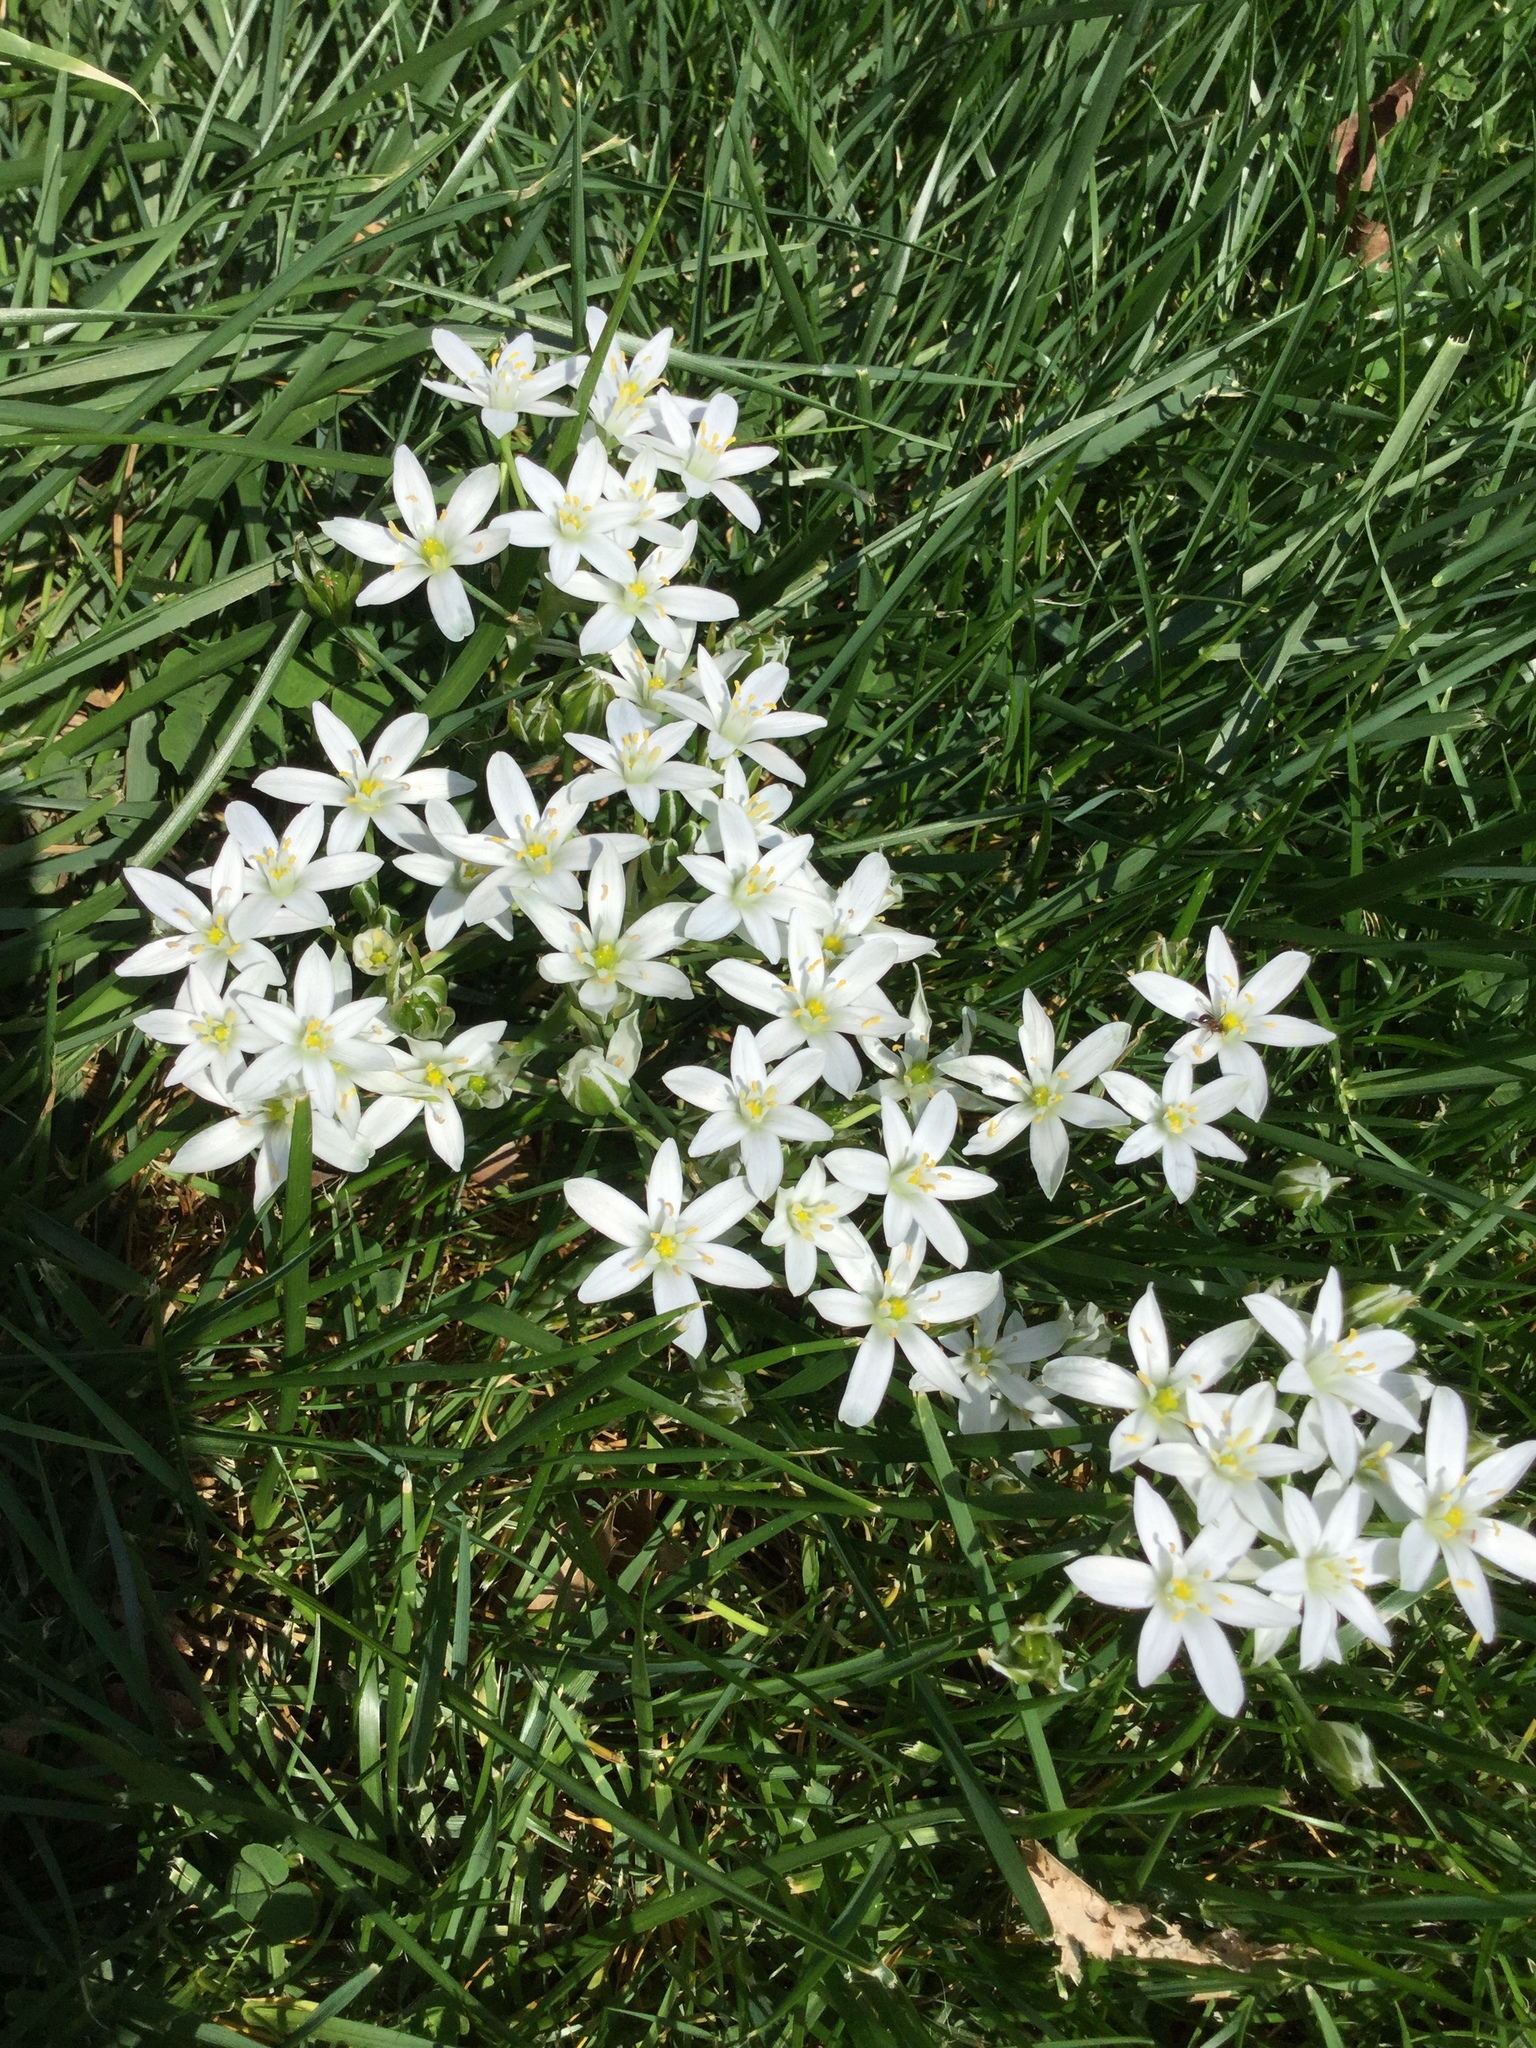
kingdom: Plantae
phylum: Tracheophyta
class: Liliopsida
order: Asparagales
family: Asparagaceae
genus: Ornithogalum
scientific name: Ornithogalum umbellatum
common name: Garden star-of-bethlehem
